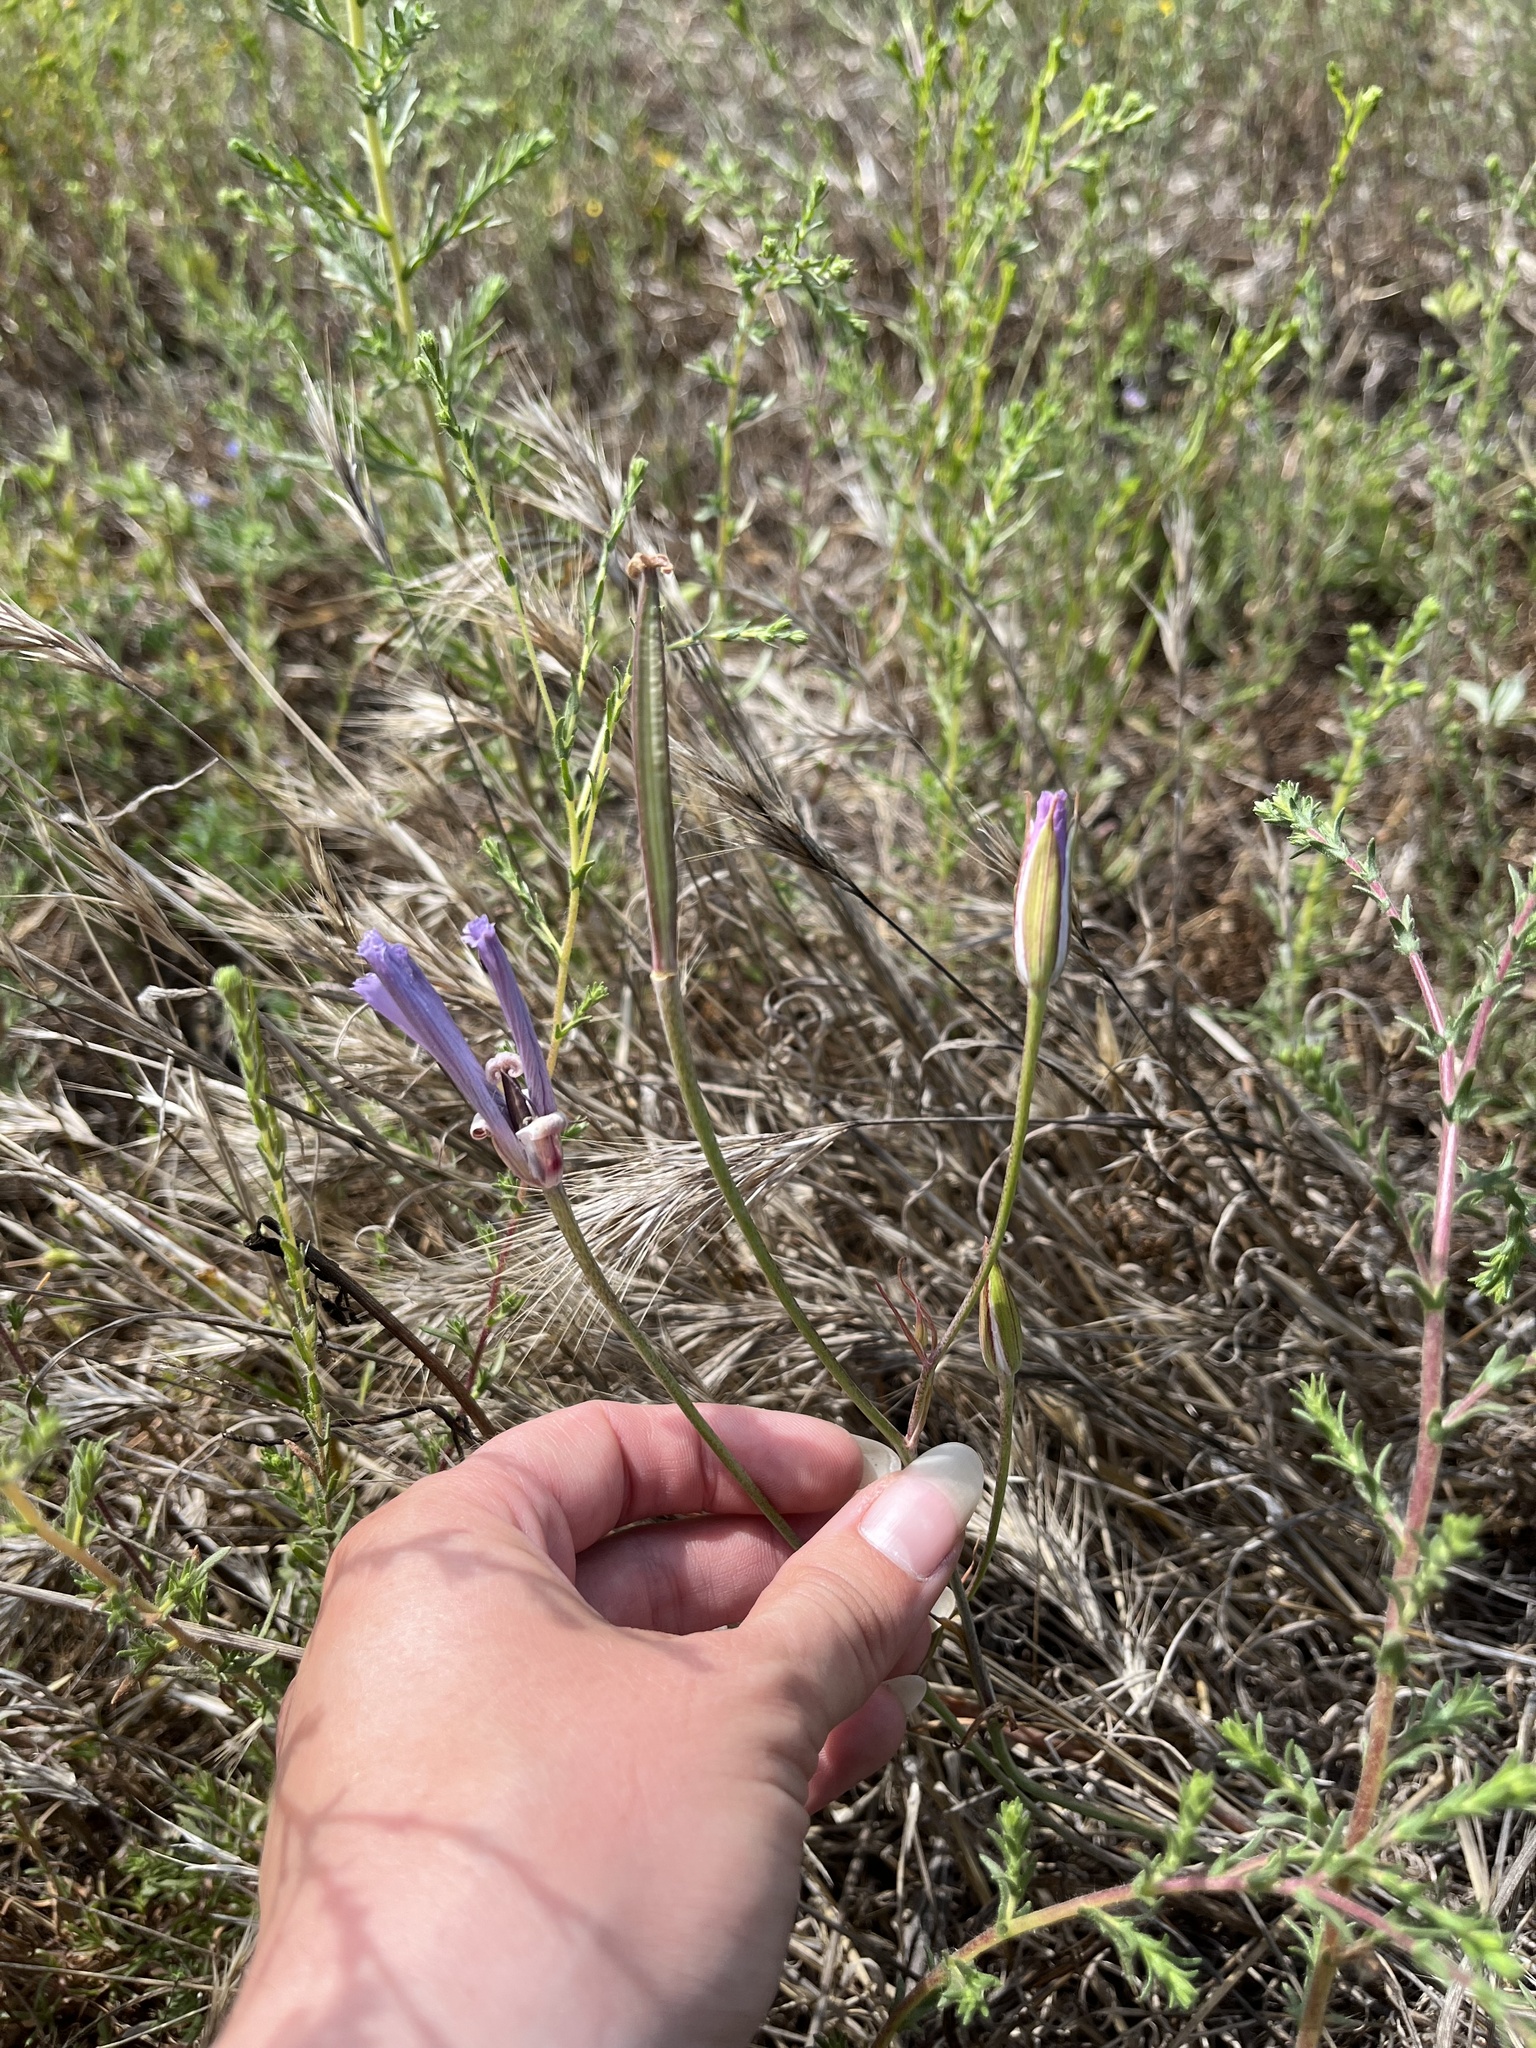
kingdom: Plantae
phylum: Tracheophyta
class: Liliopsida
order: Liliales
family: Liliaceae
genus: Calochortus
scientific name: Calochortus splendens
